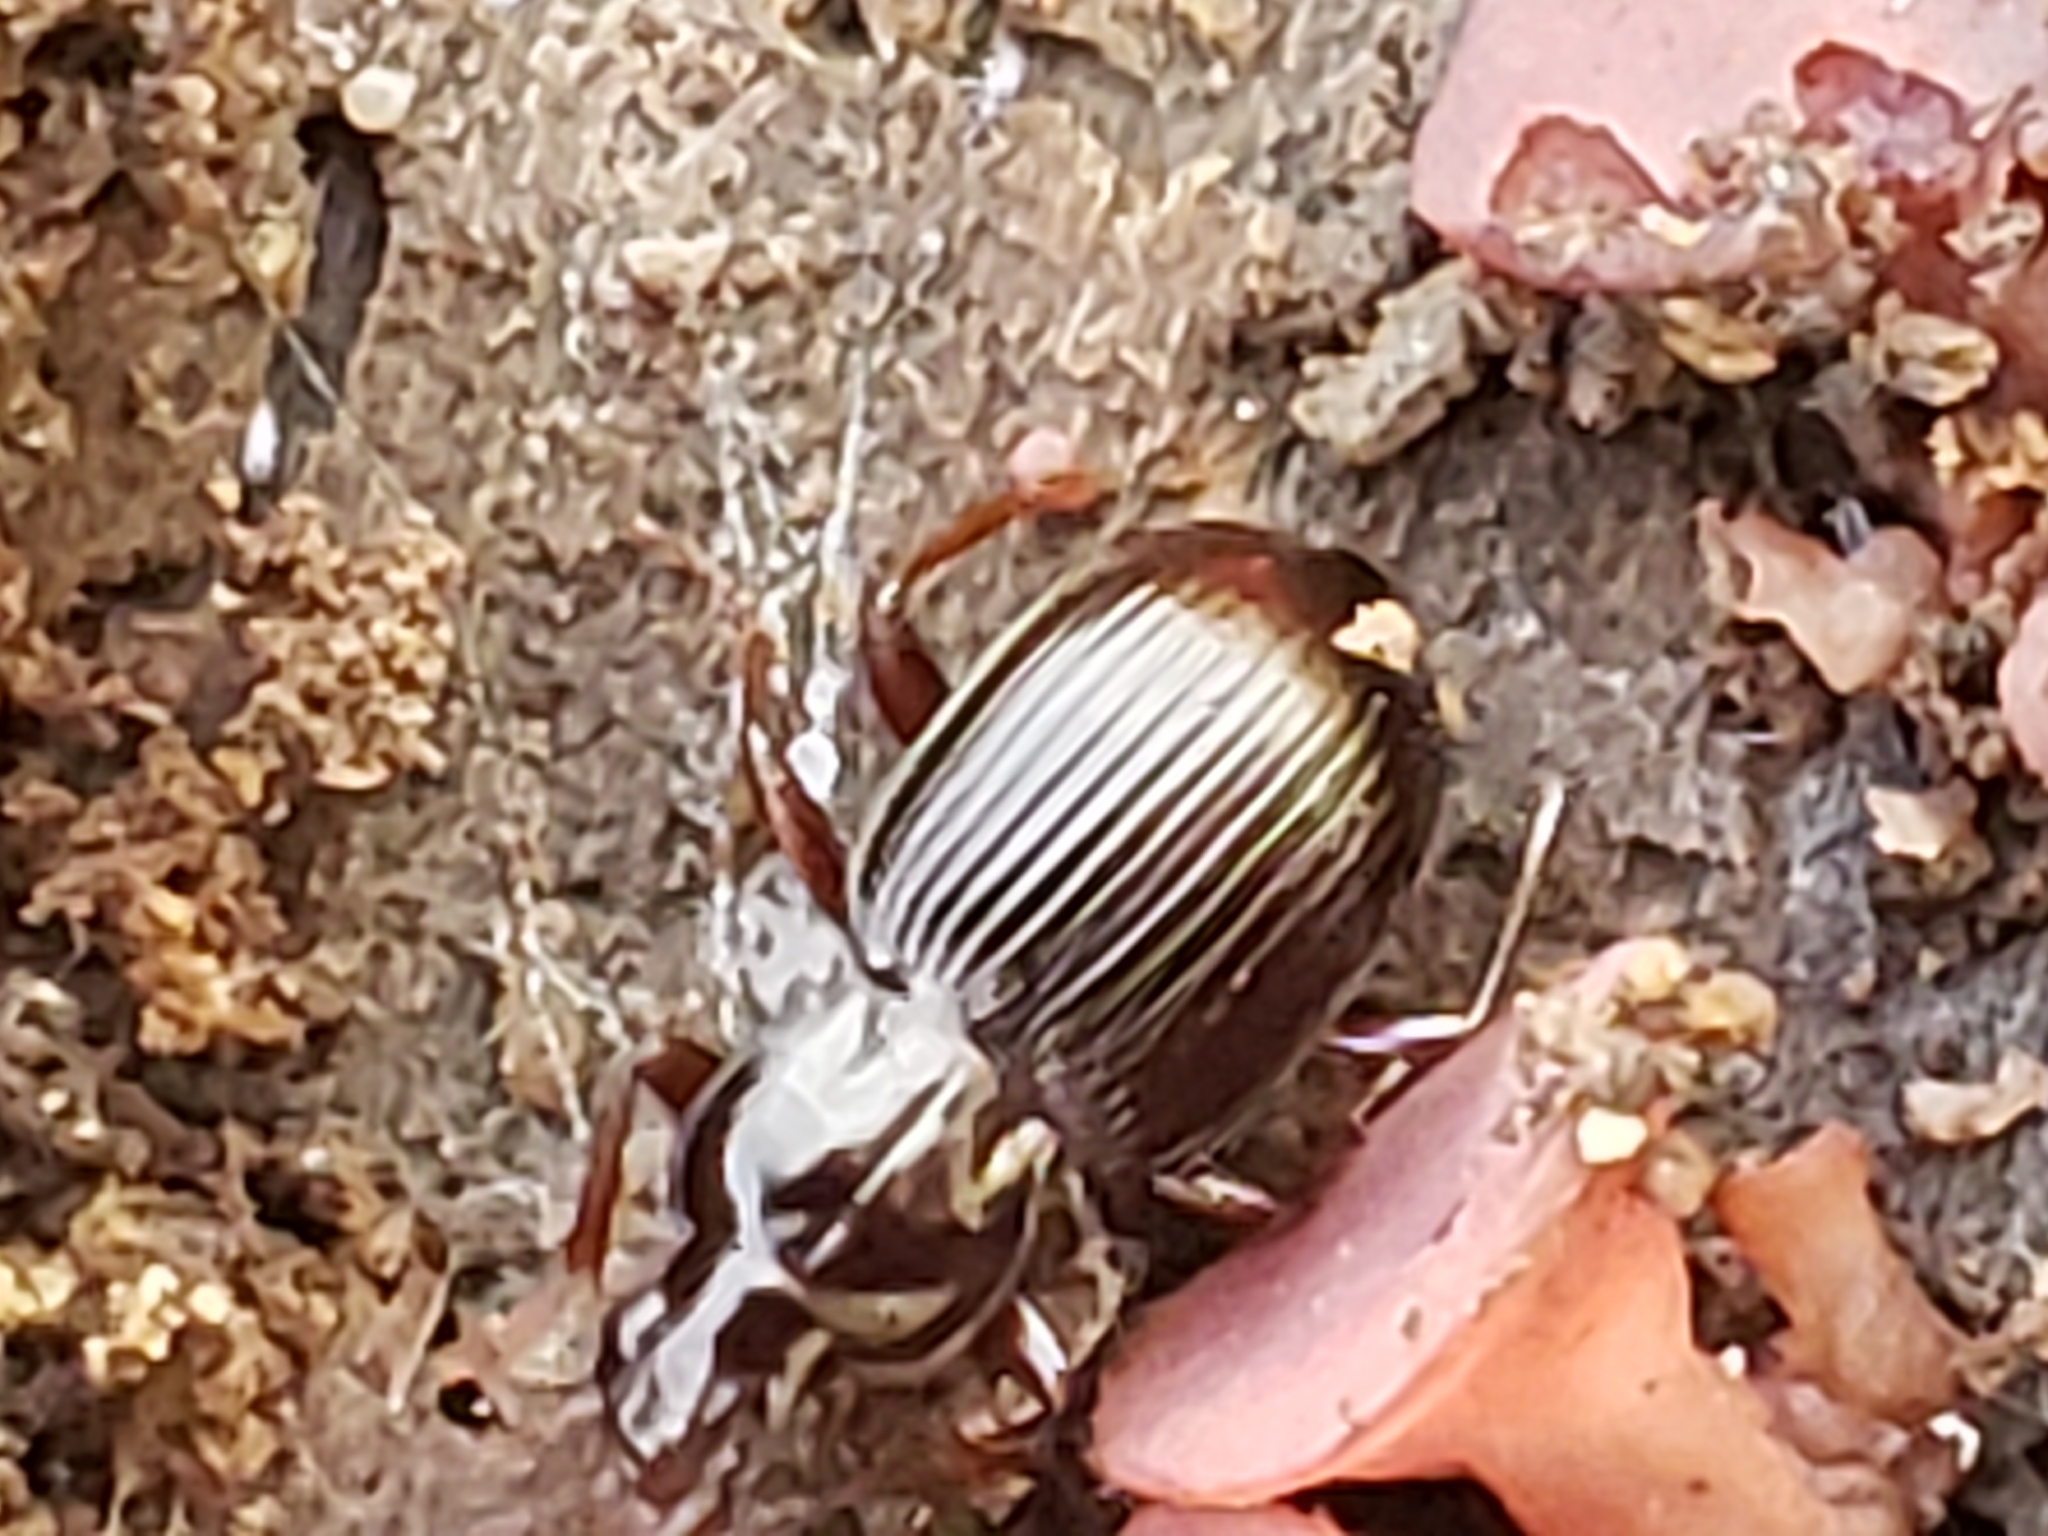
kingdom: Animalia
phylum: Arthropoda
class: Insecta
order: Coleoptera
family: Carabidae
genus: Gastrellarius
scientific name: Gastrellarius honestus
